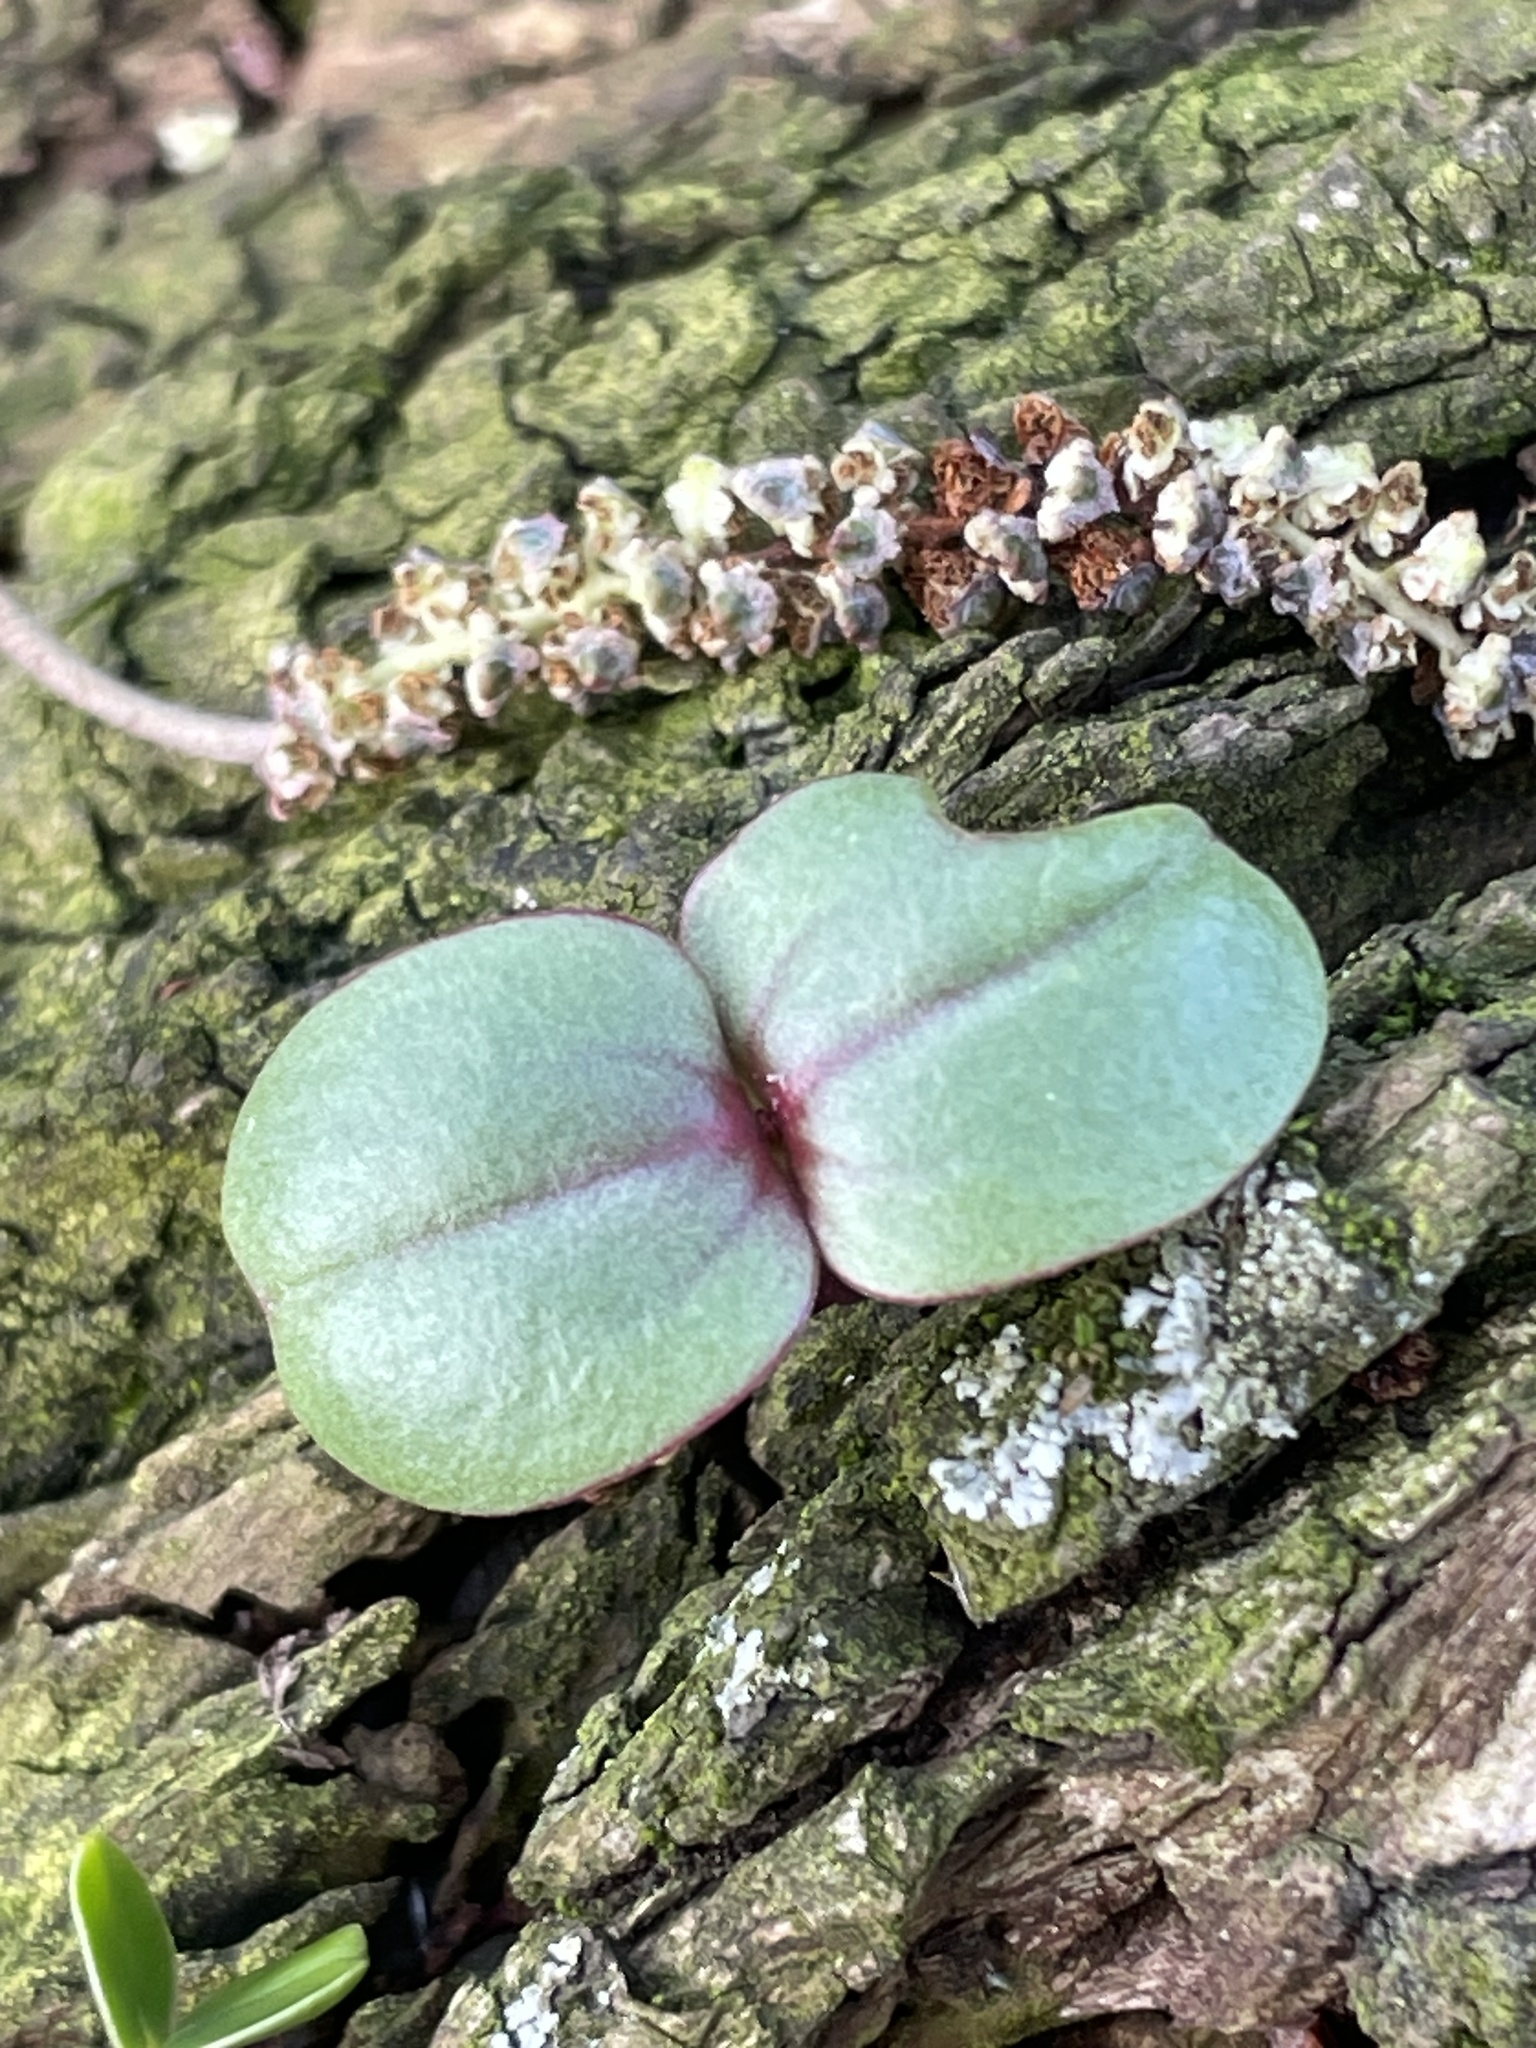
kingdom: Plantae
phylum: Tracheophyta
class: Magnoliopsida
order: Ericales
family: Balsaminaceae
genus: Impatiens
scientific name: Impatiens glandulifera
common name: Himalayan balsam
